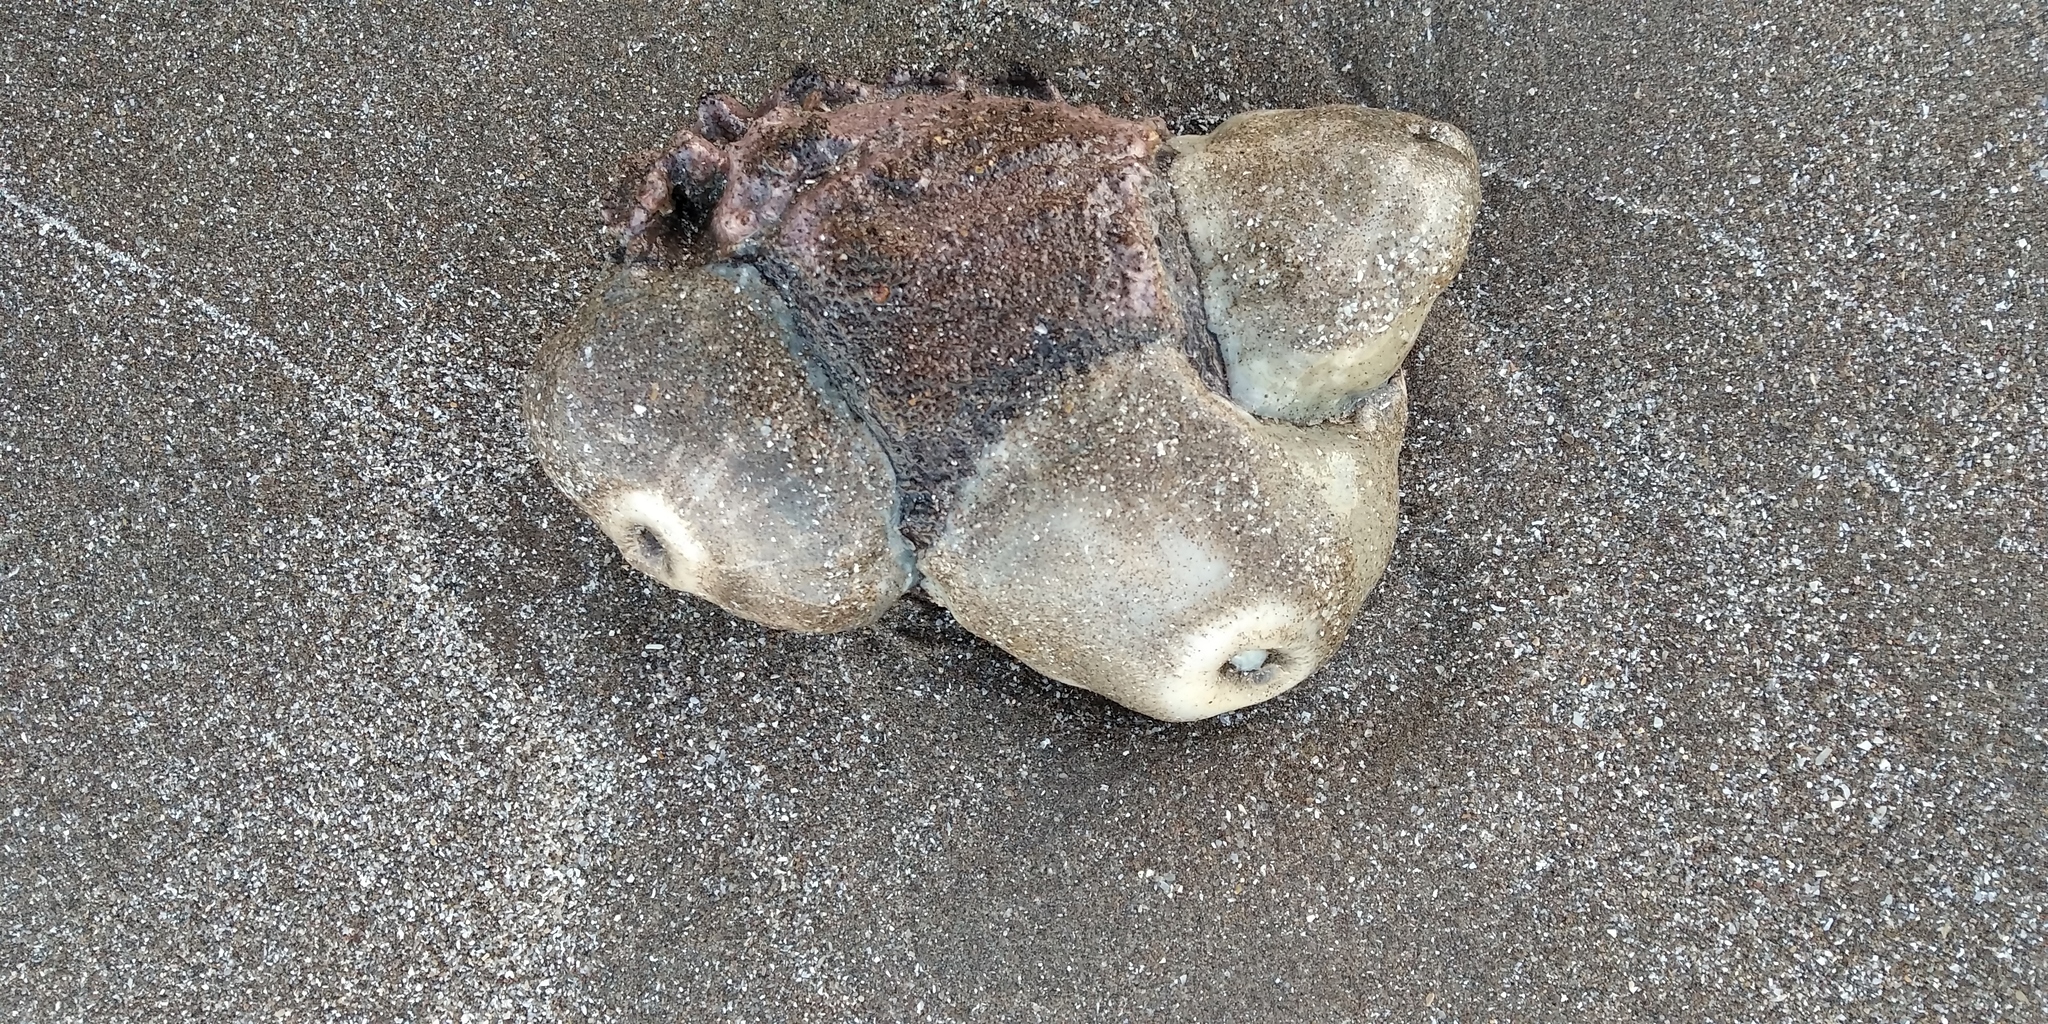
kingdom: Animalia
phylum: Cnidaria
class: Anthozoa
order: Actiniaria
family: Hormathiidae
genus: Calliactis
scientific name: Calliactis tricolor
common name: Hermit anemone
